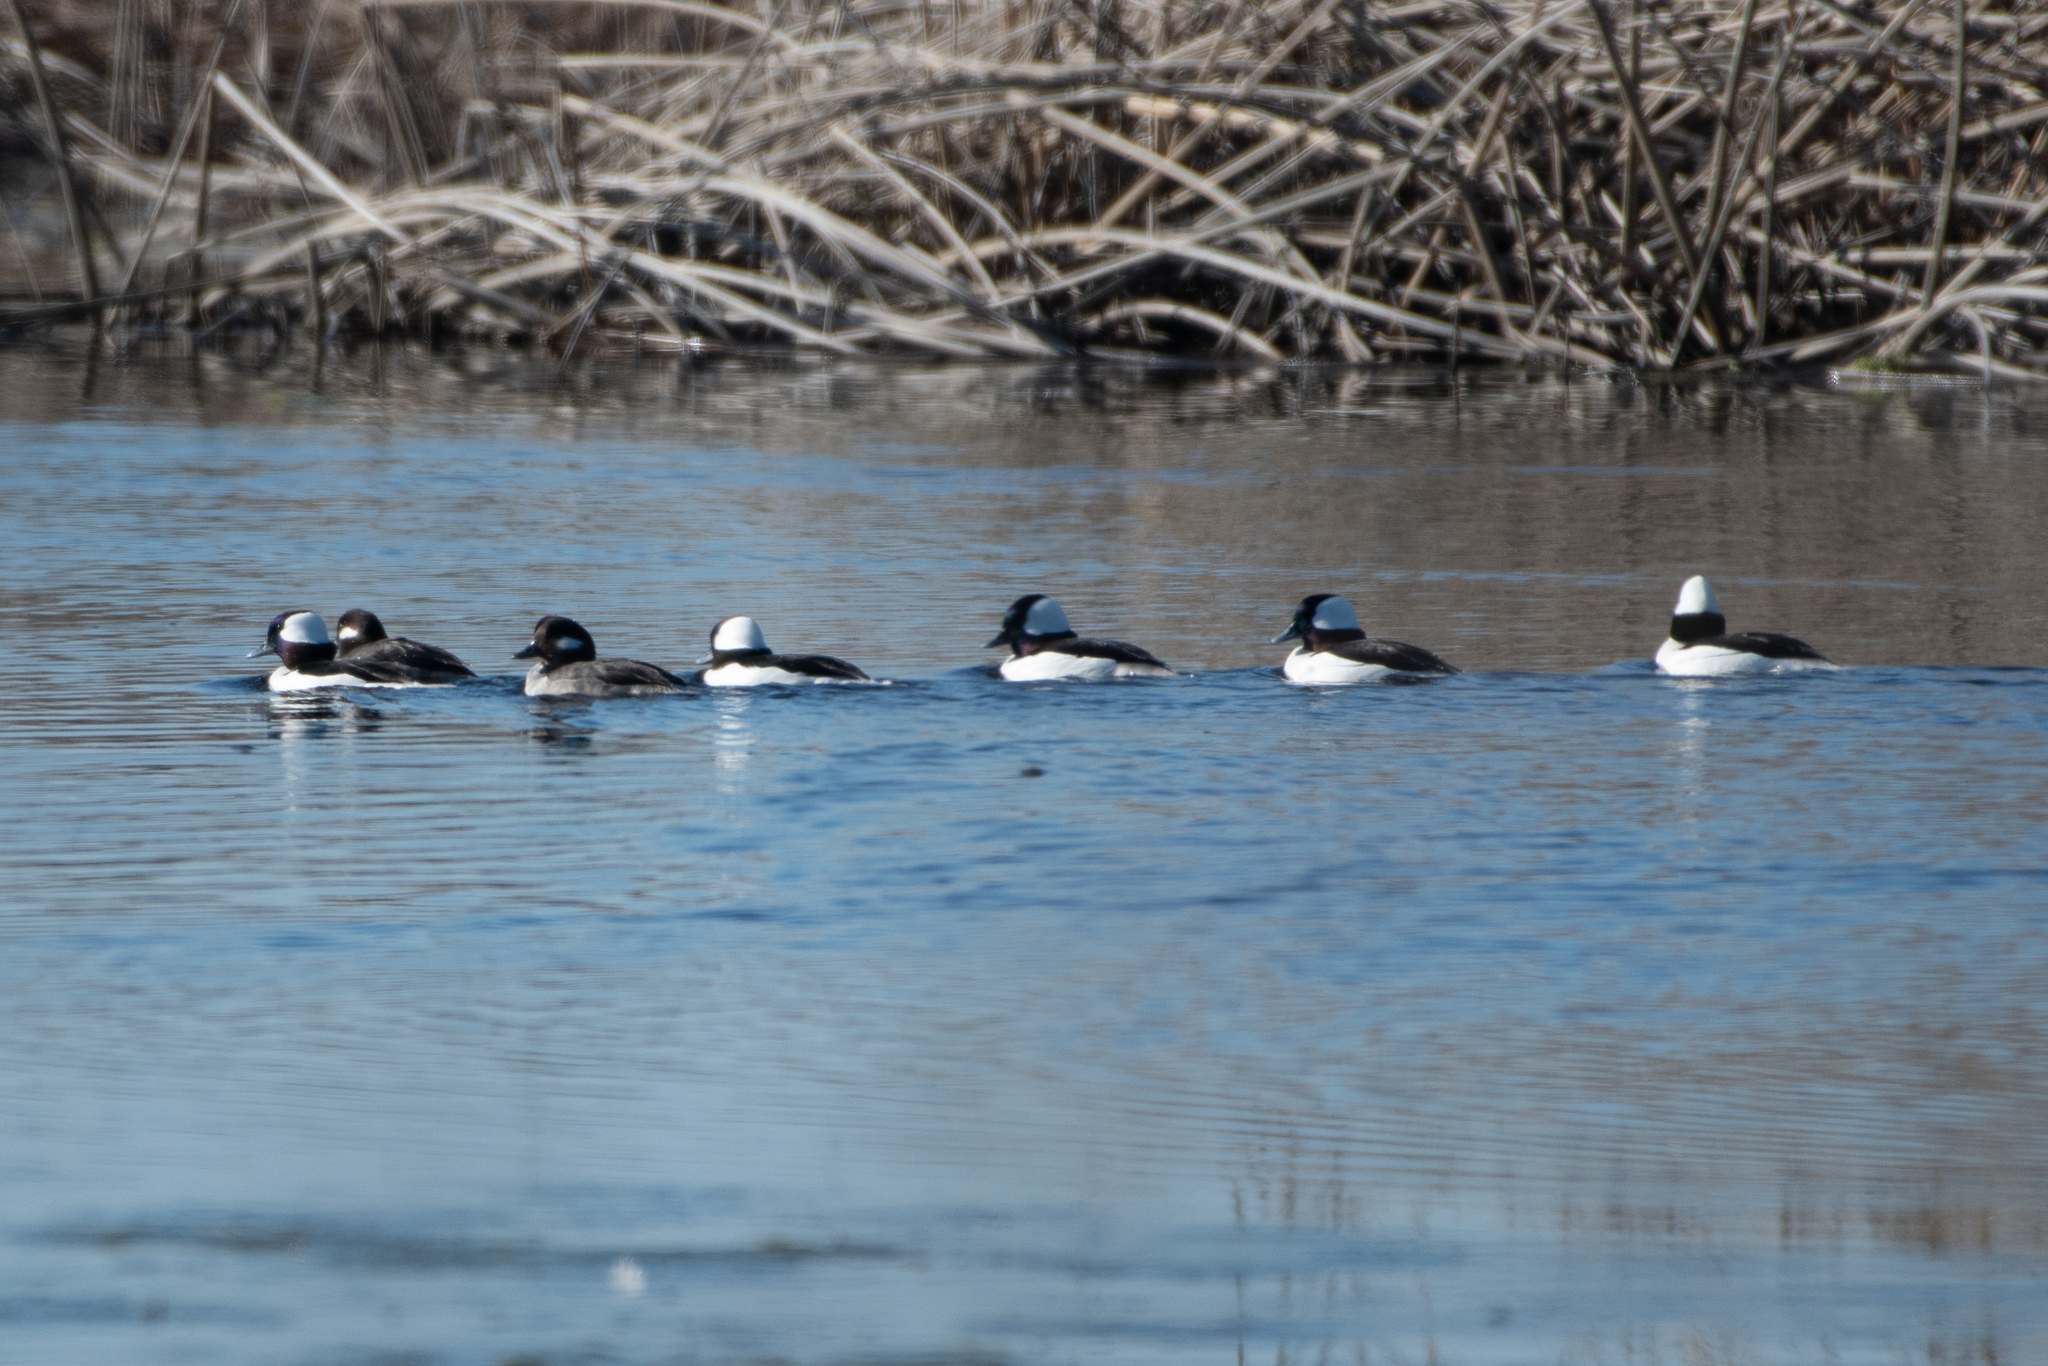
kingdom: Animalia
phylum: Chordata
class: Aves
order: Anseriformes
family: Anatidae
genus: Bucephala
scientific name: Bucephala albeola
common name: Bufflehead
